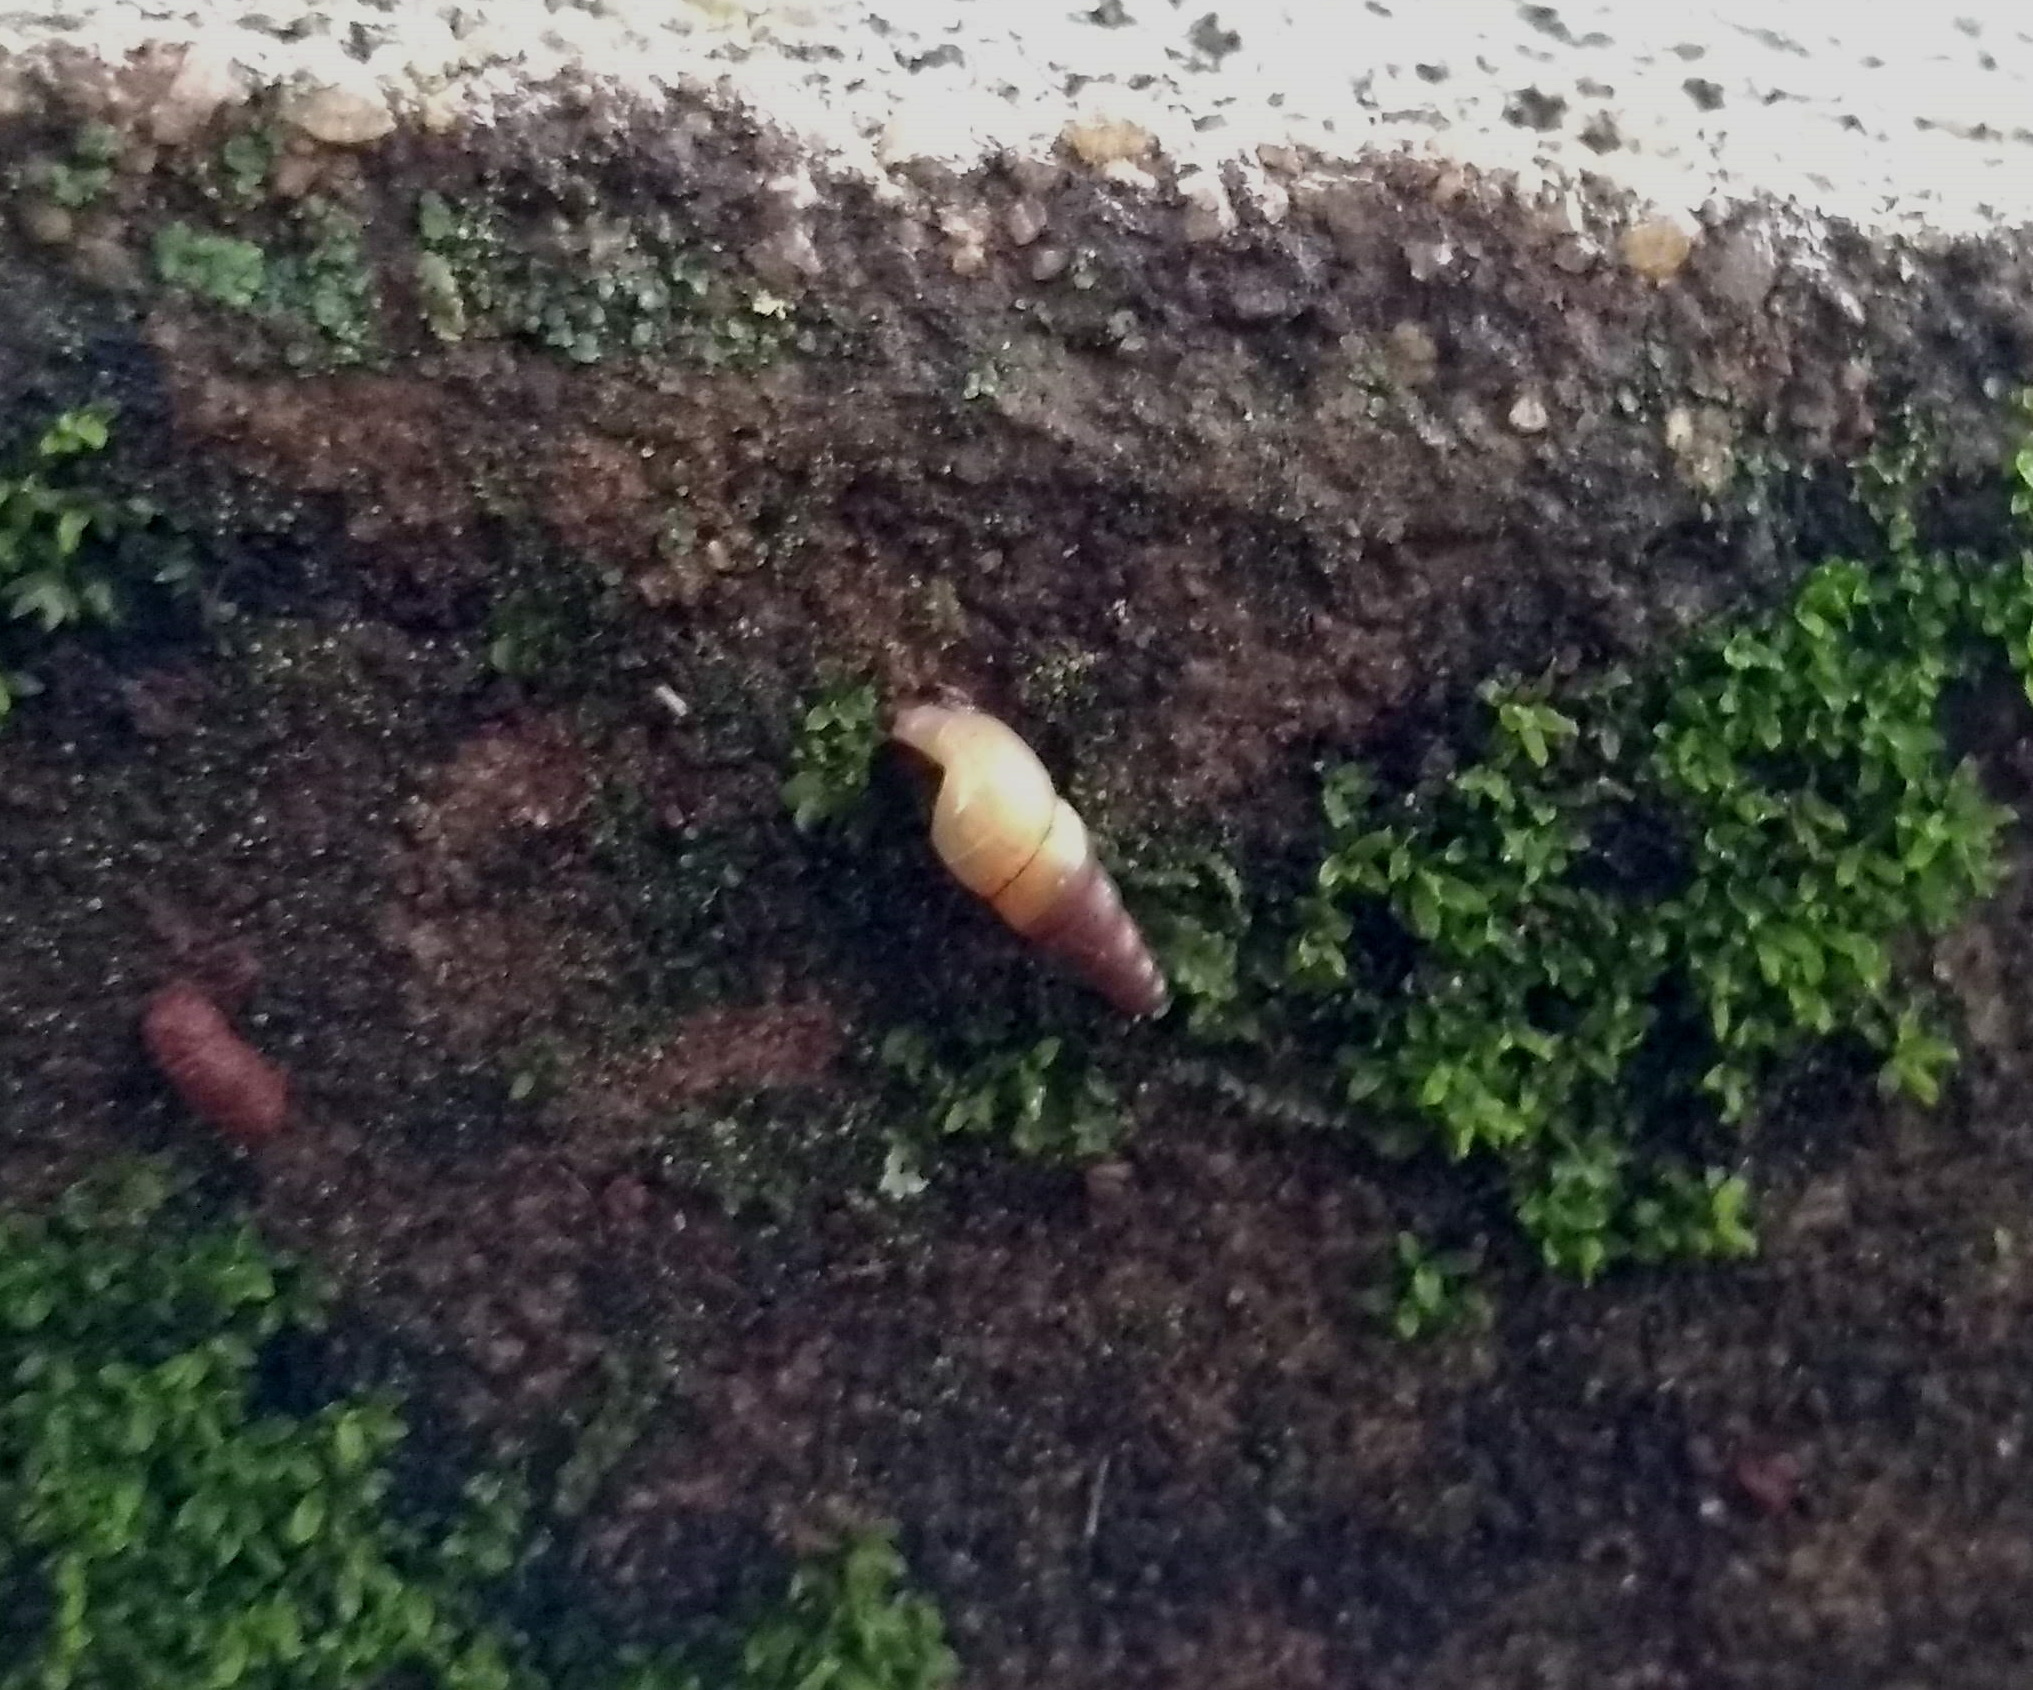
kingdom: Animalia
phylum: Mollusca
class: Gastropoda
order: Stylommatophora
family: Achatinidae
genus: Subulina
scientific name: Subulina octona
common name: Miniature awlsnail
